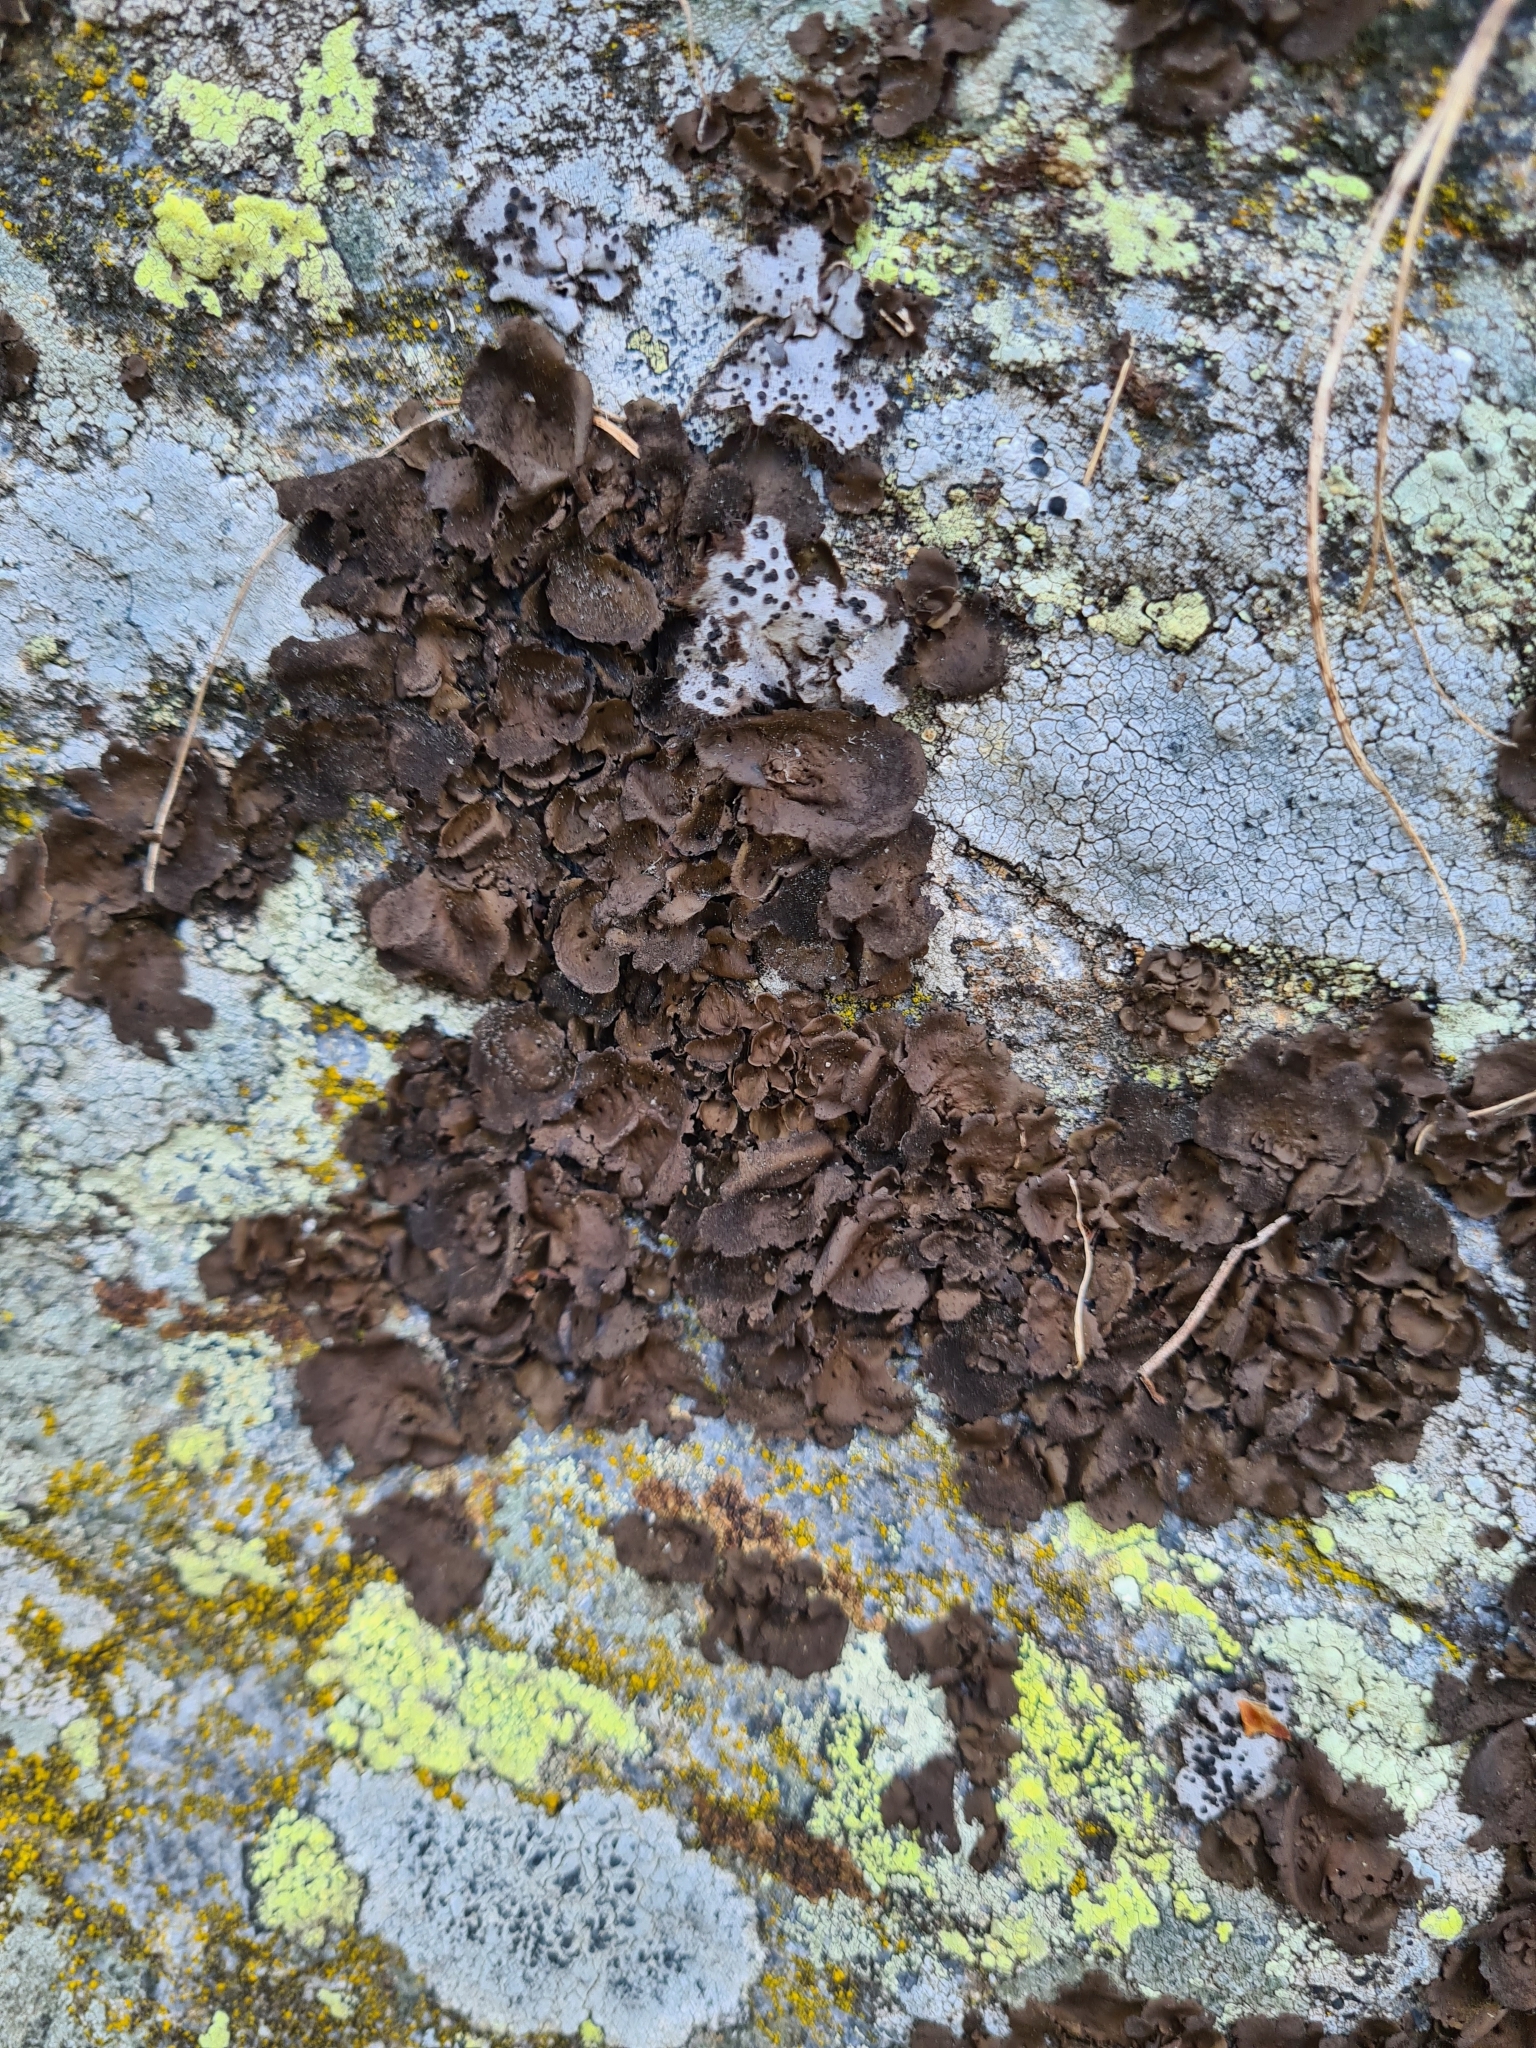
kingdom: Fungi
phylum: Ascomycota
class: Lecanoromycetes
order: Umbilicariales
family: Umbilicariaceae
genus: Umbilicaria
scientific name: Umbilicaria deusta
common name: Peppered rock tripe
